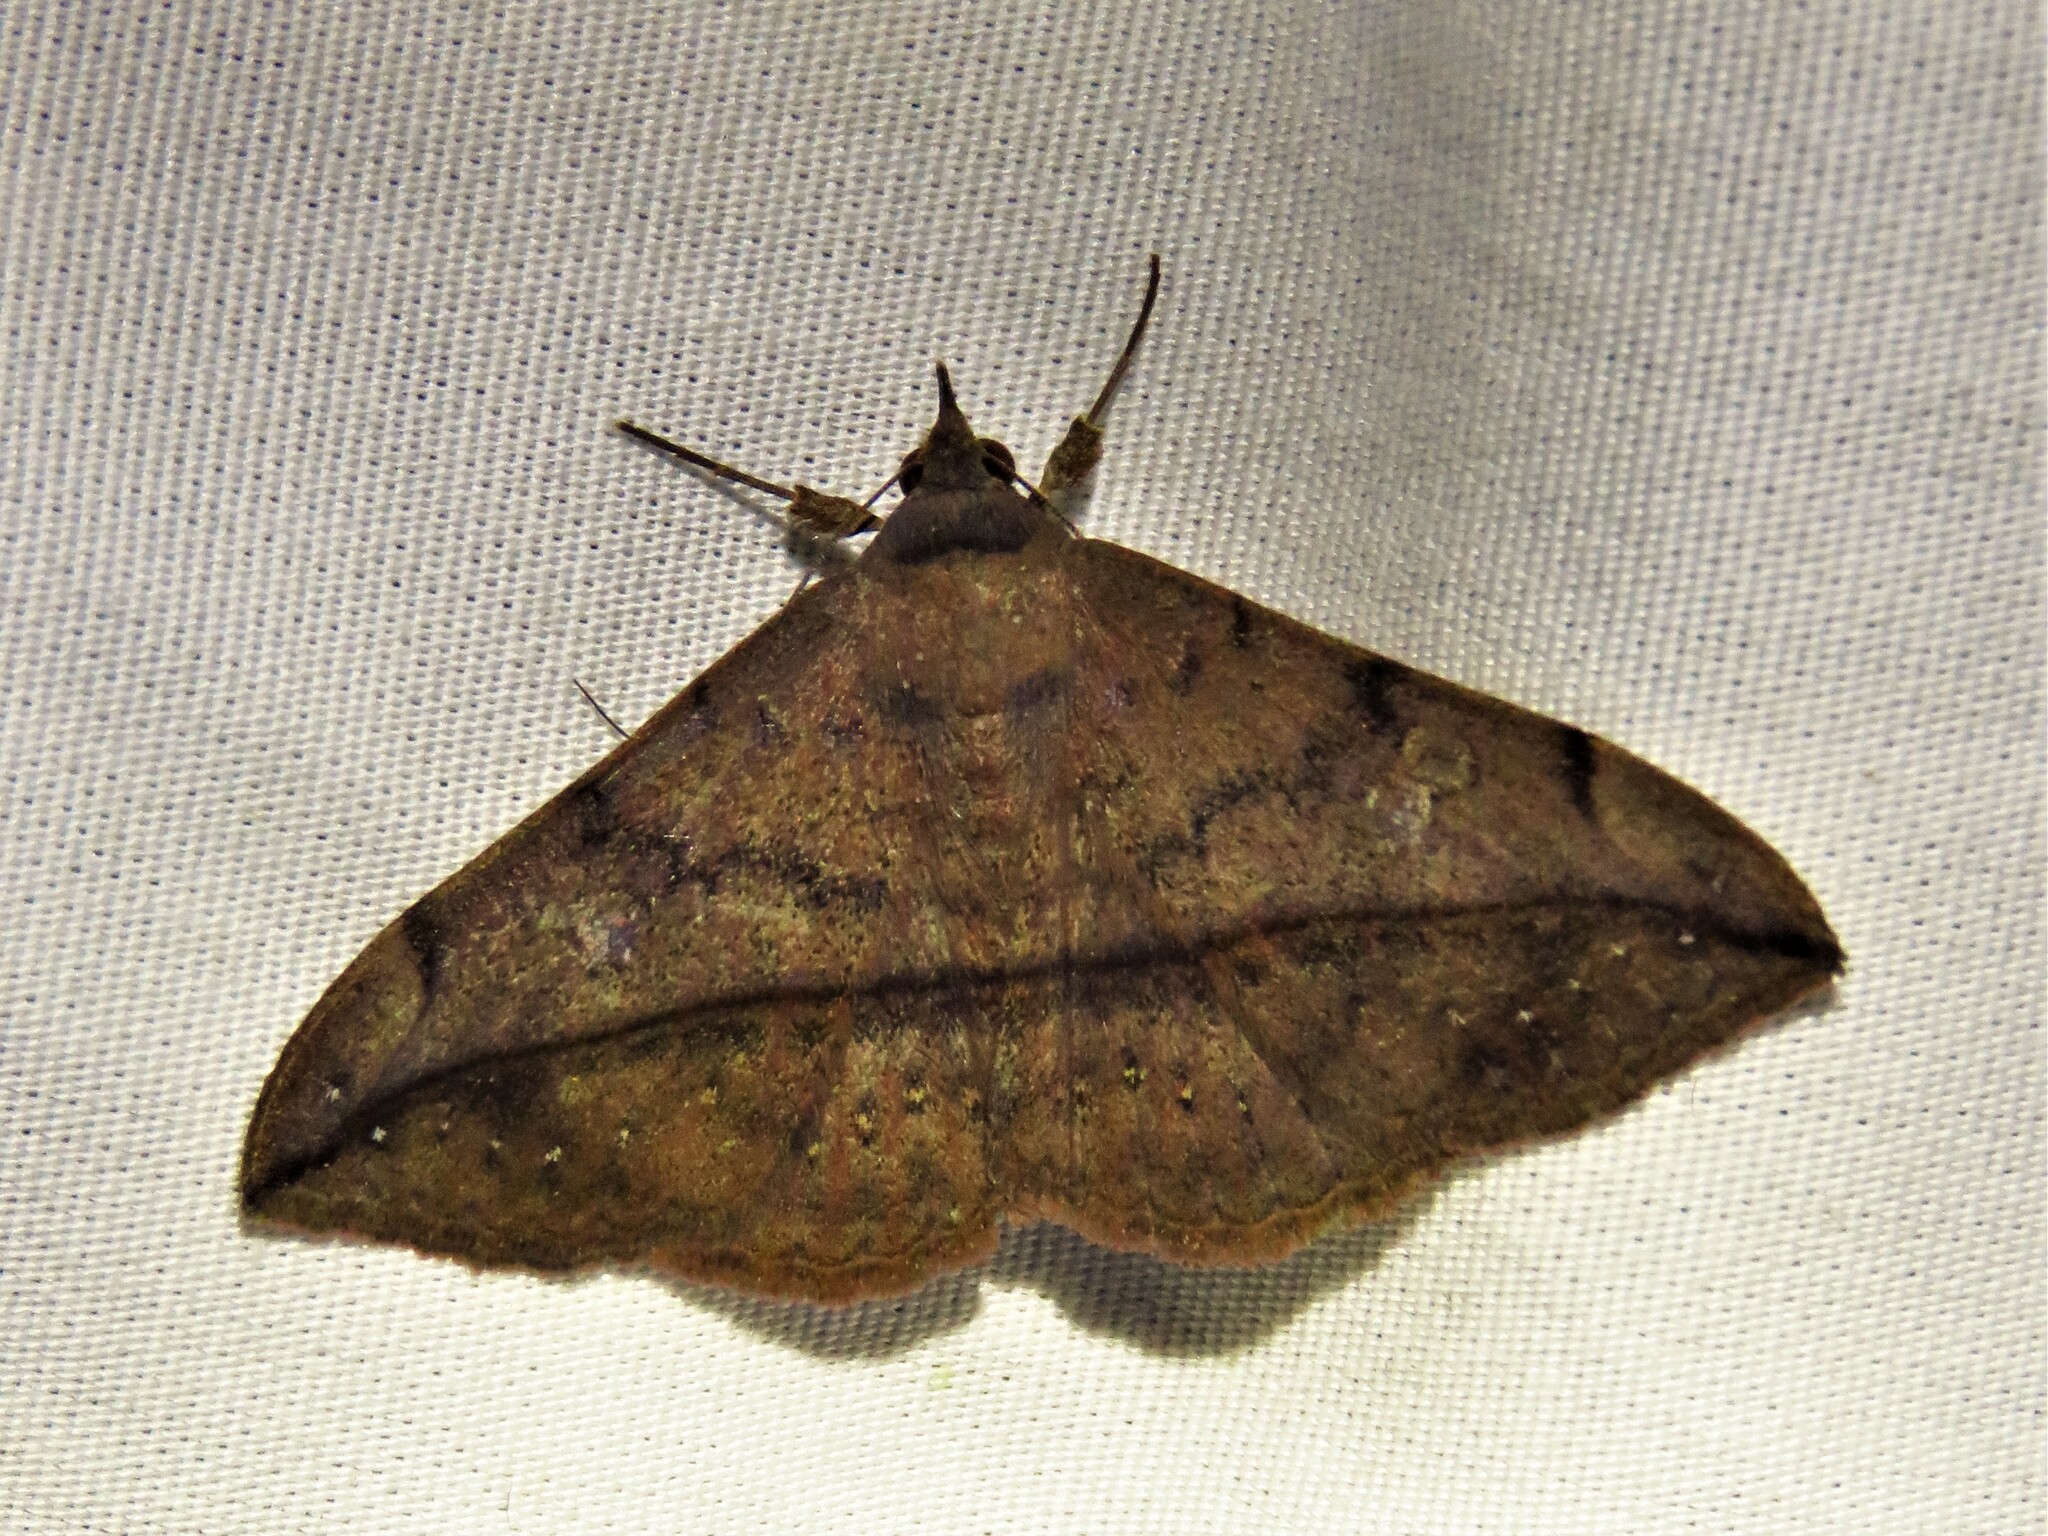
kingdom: Animalia
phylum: Arthropoda
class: Insecta
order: Lepidoptera
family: Erebidae
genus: Anticarsia
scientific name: Anticarsia gemmatalis
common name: Cutworm moth
